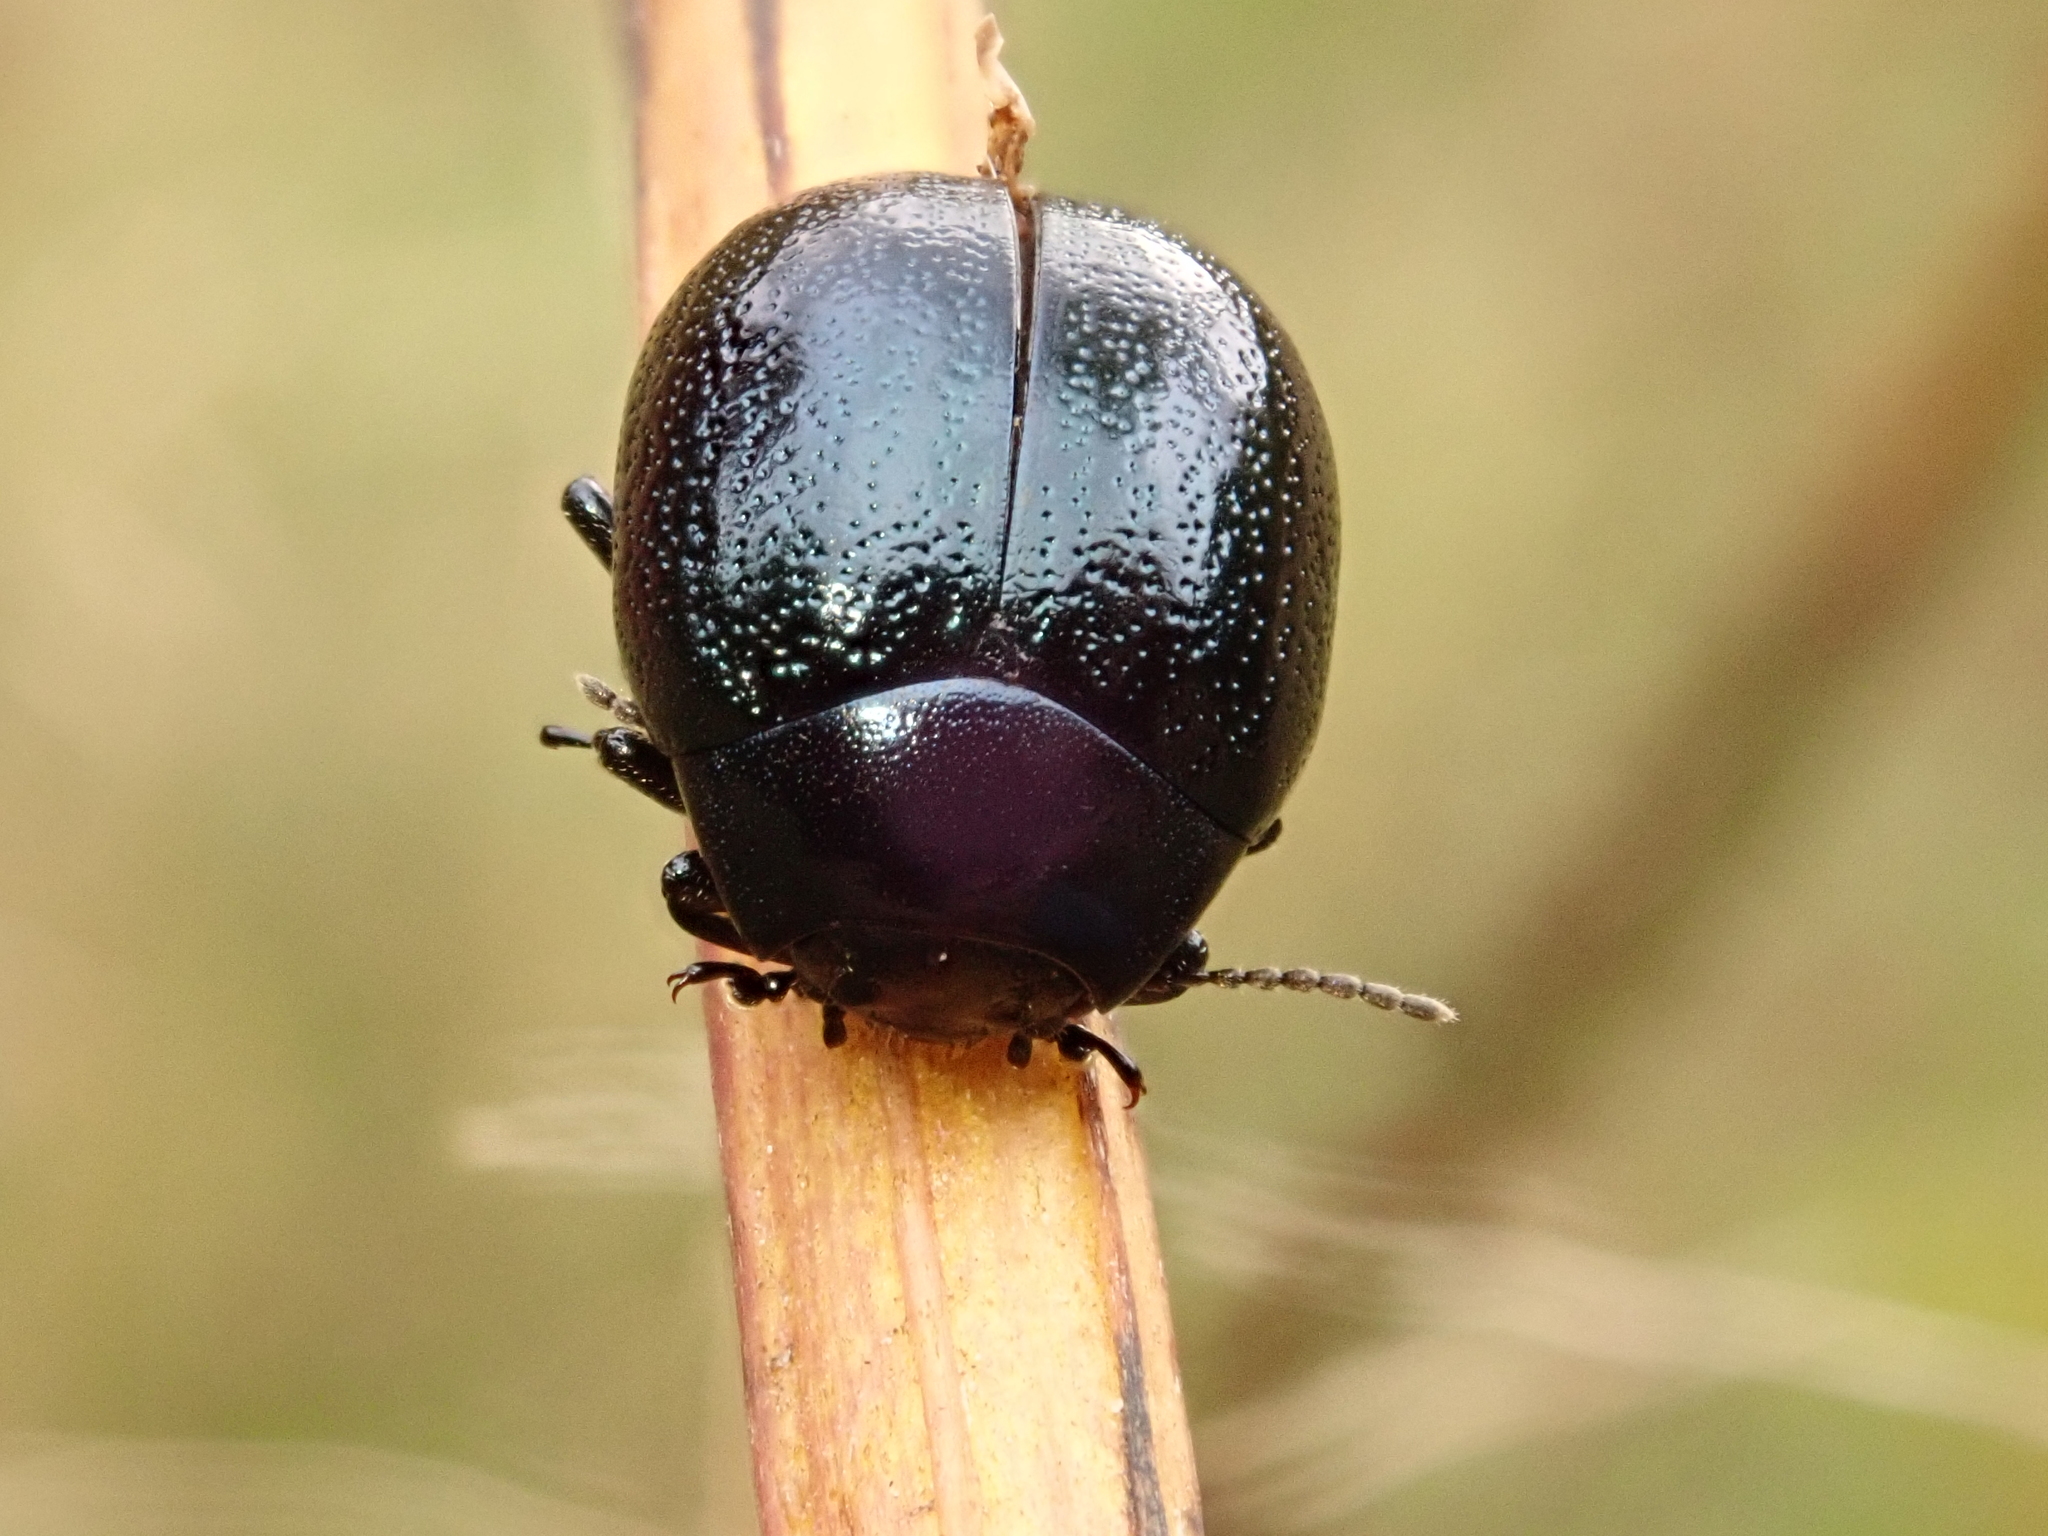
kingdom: Animalia
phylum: Arthropoda
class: Insecta
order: Coleoptera
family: Chrysomelidae
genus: Chrysolina
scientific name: Chrysolina haemoptera
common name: Plantain leaf beetle
